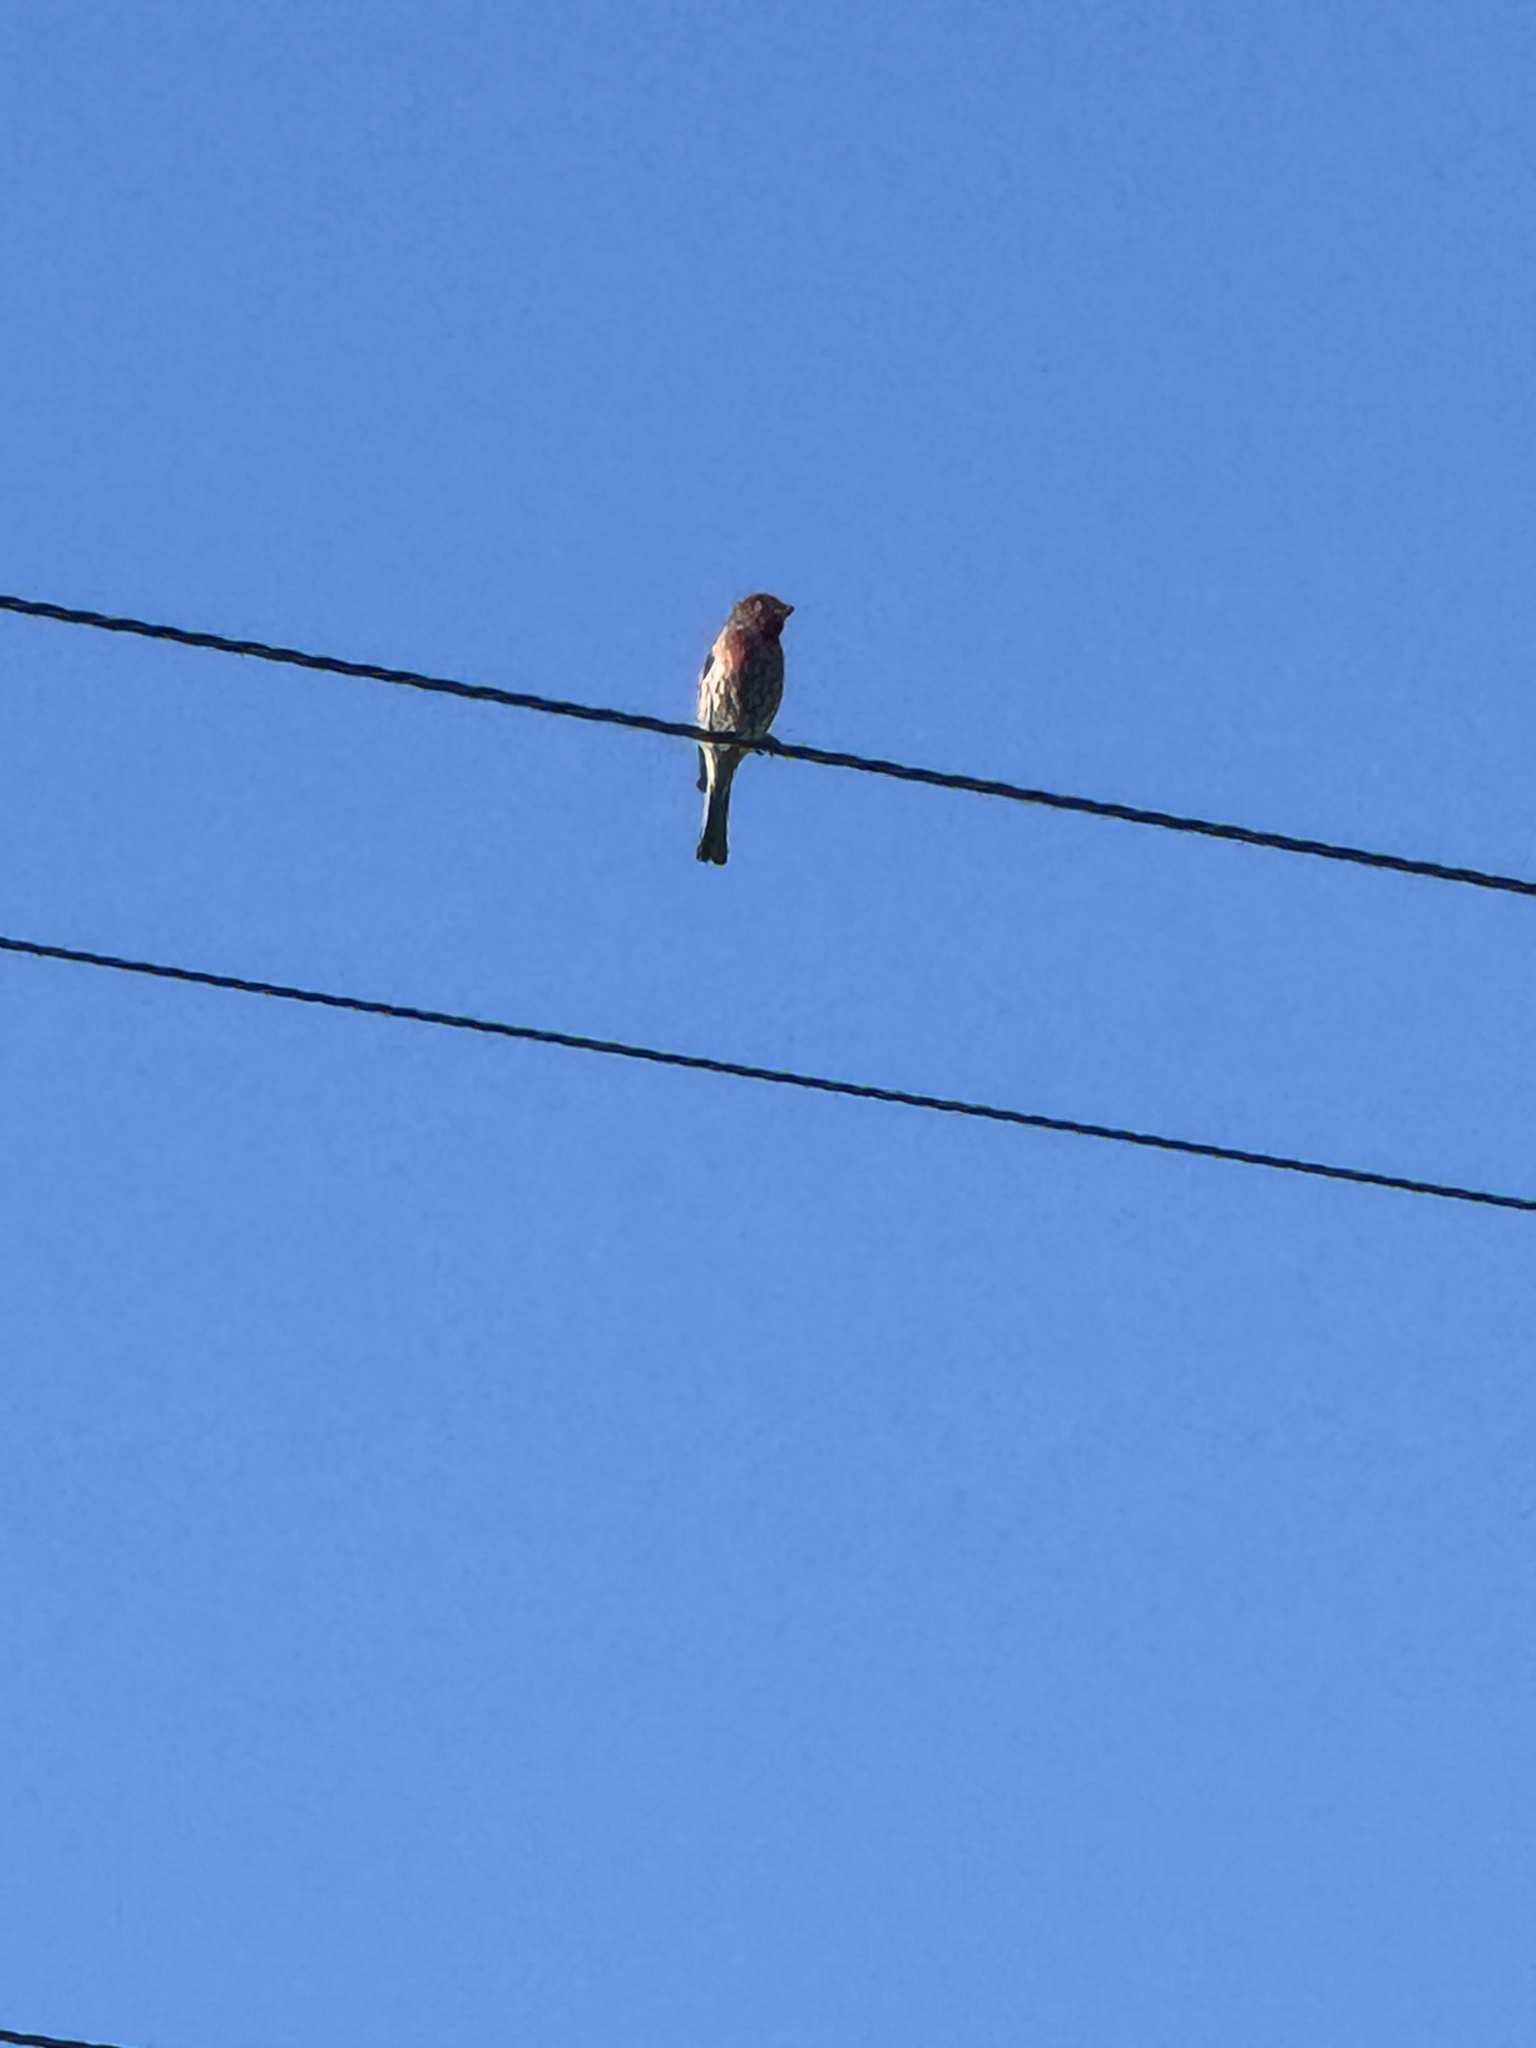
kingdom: Animalia
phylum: Chordata
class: Aves
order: Passeriformes
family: Fringillidae
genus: Haemorhous
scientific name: Haemorhous mexicanus
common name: House finch
